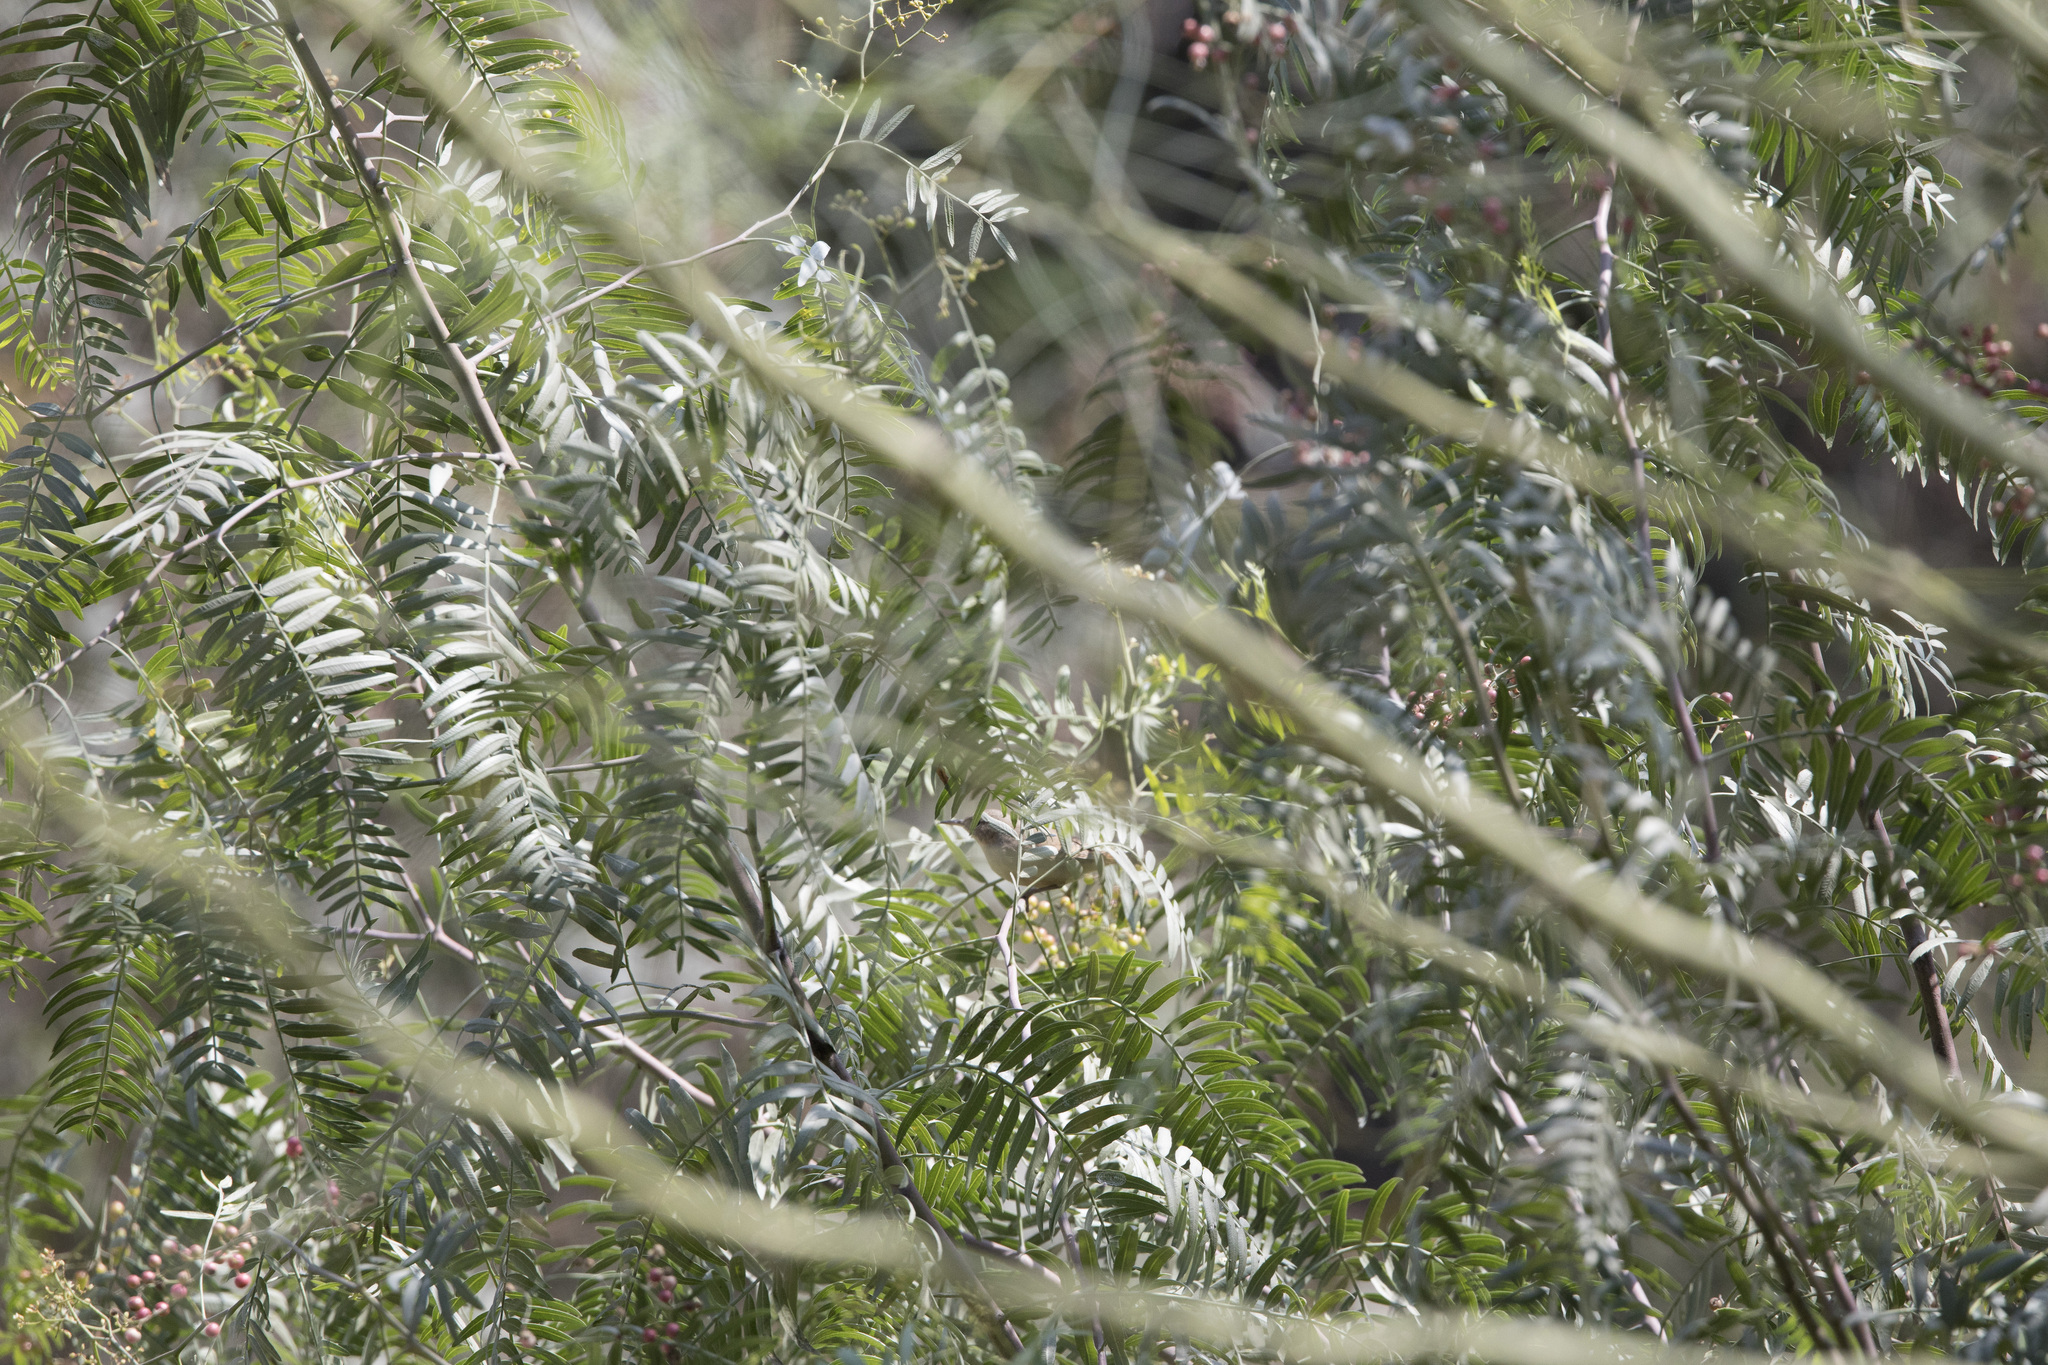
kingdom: Animalia
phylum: Chordata
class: Aves
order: Passeriformes
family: Troglodytidae
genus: Troglodytes
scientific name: Troglodytes aedon
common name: House wren
